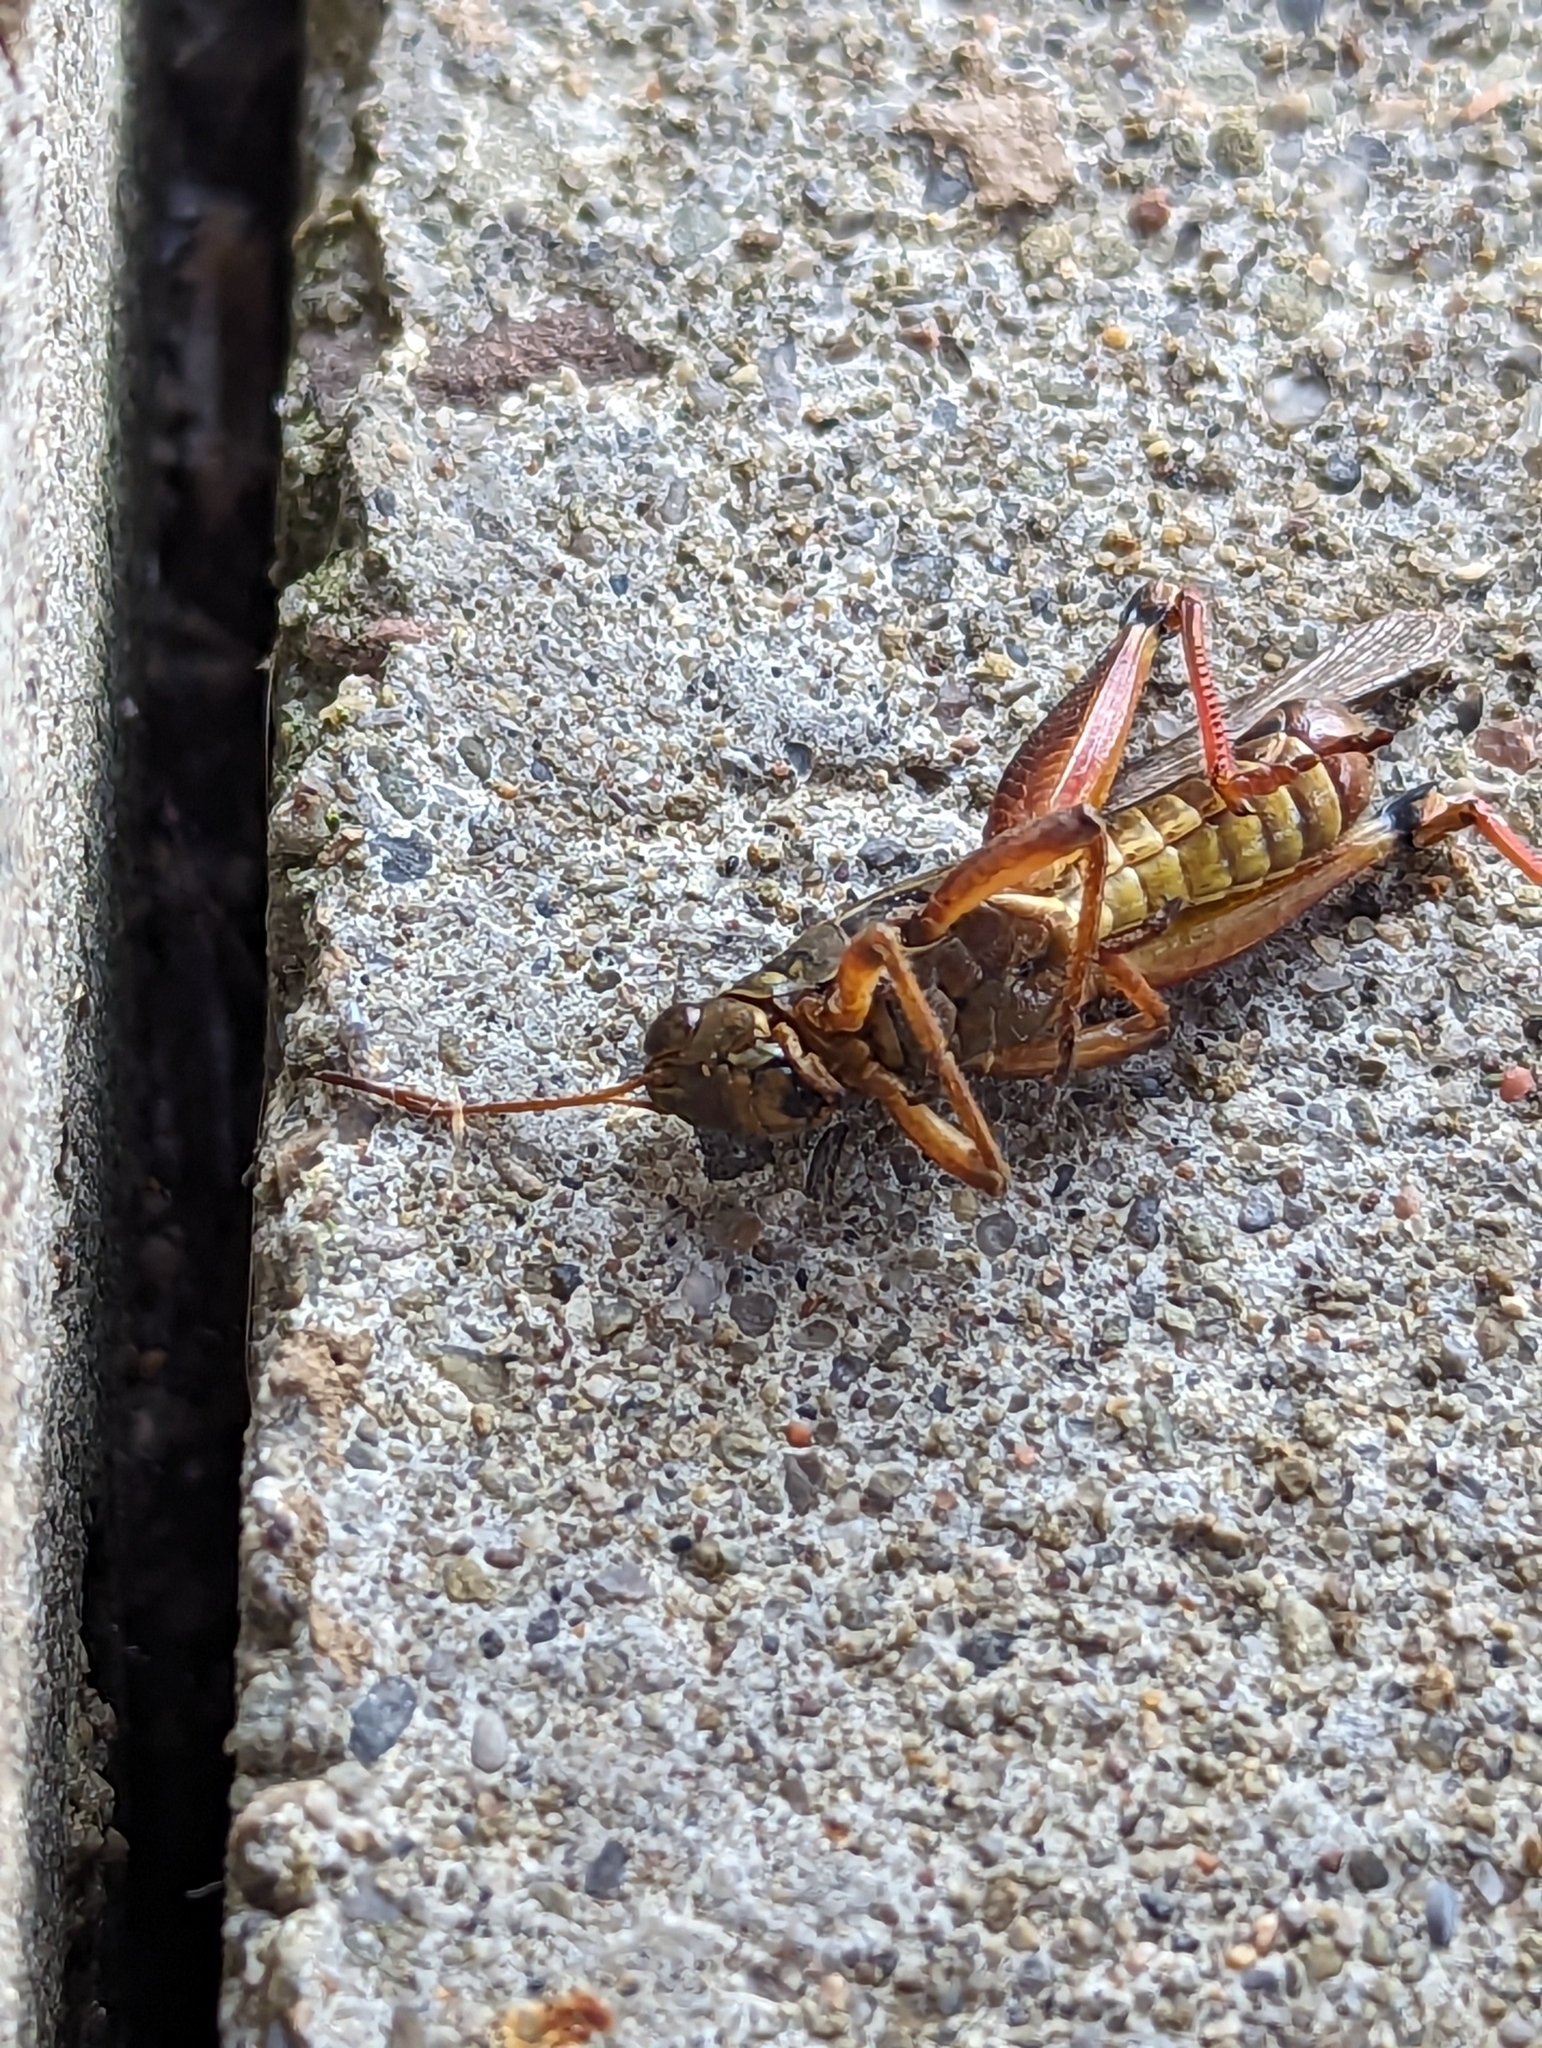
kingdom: Animalia
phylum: Arthropoda
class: Insecta
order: Orthoptera
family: Acrididae
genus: Melanoplus
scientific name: Melanoplus femurrubrum
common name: Red-legged grasshopper
